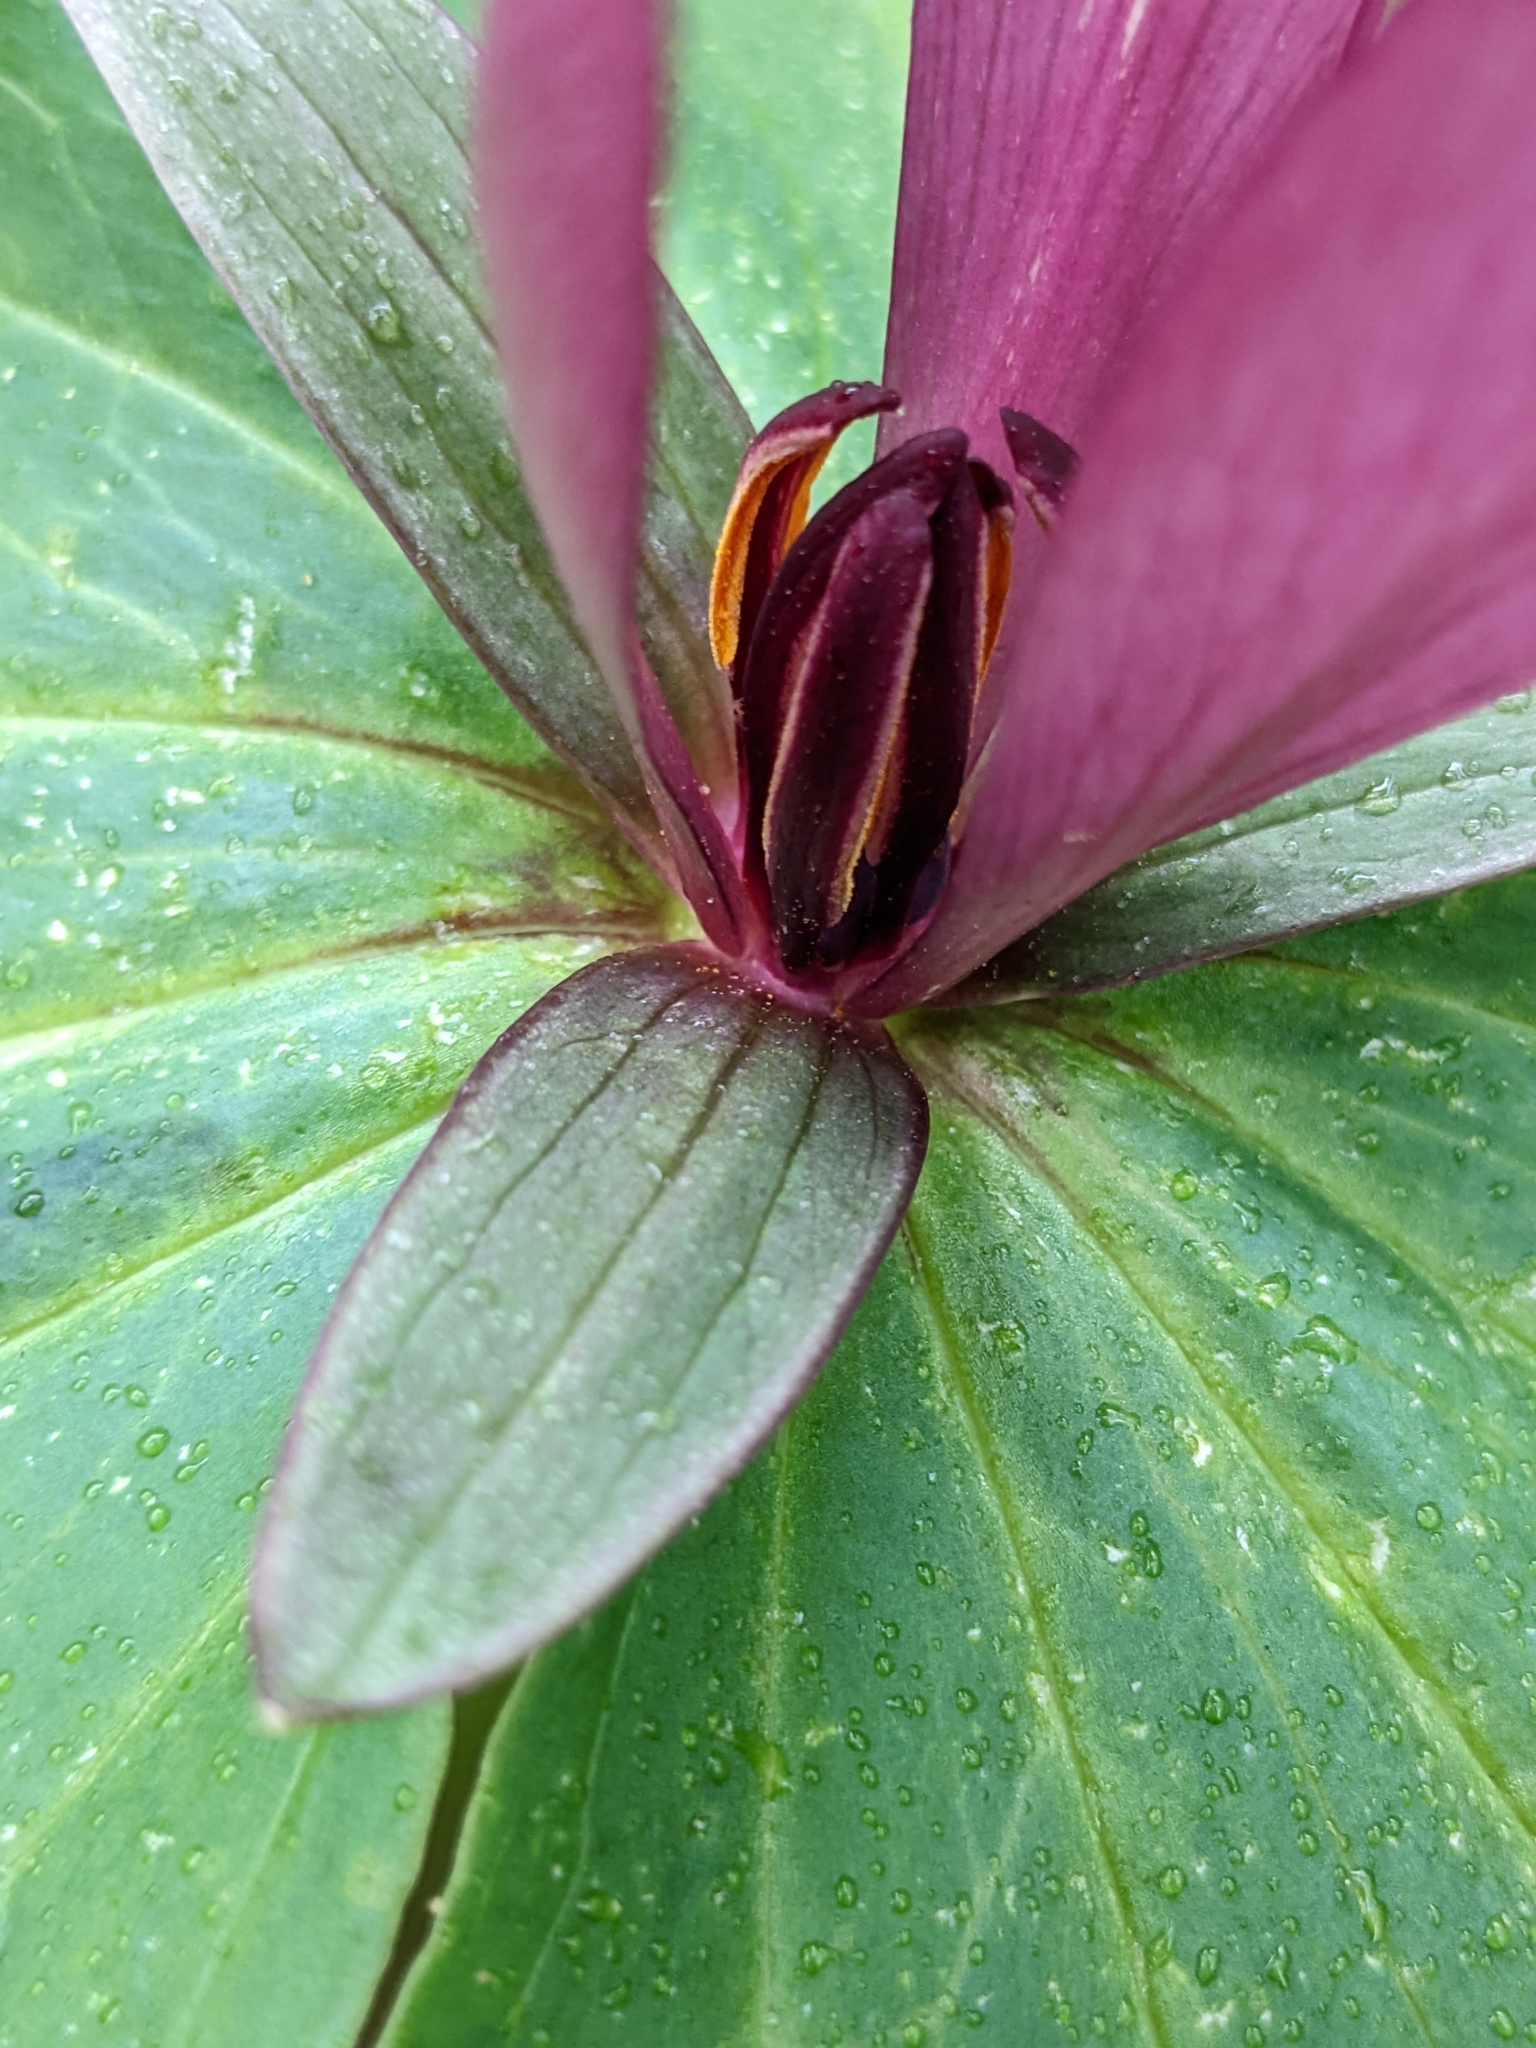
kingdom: Plantae
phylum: Tracheophyta
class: Liliopsida
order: Liliales
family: Melanthiaceae
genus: Trillium
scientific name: Trillium chloropetalum
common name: Giant trillium
